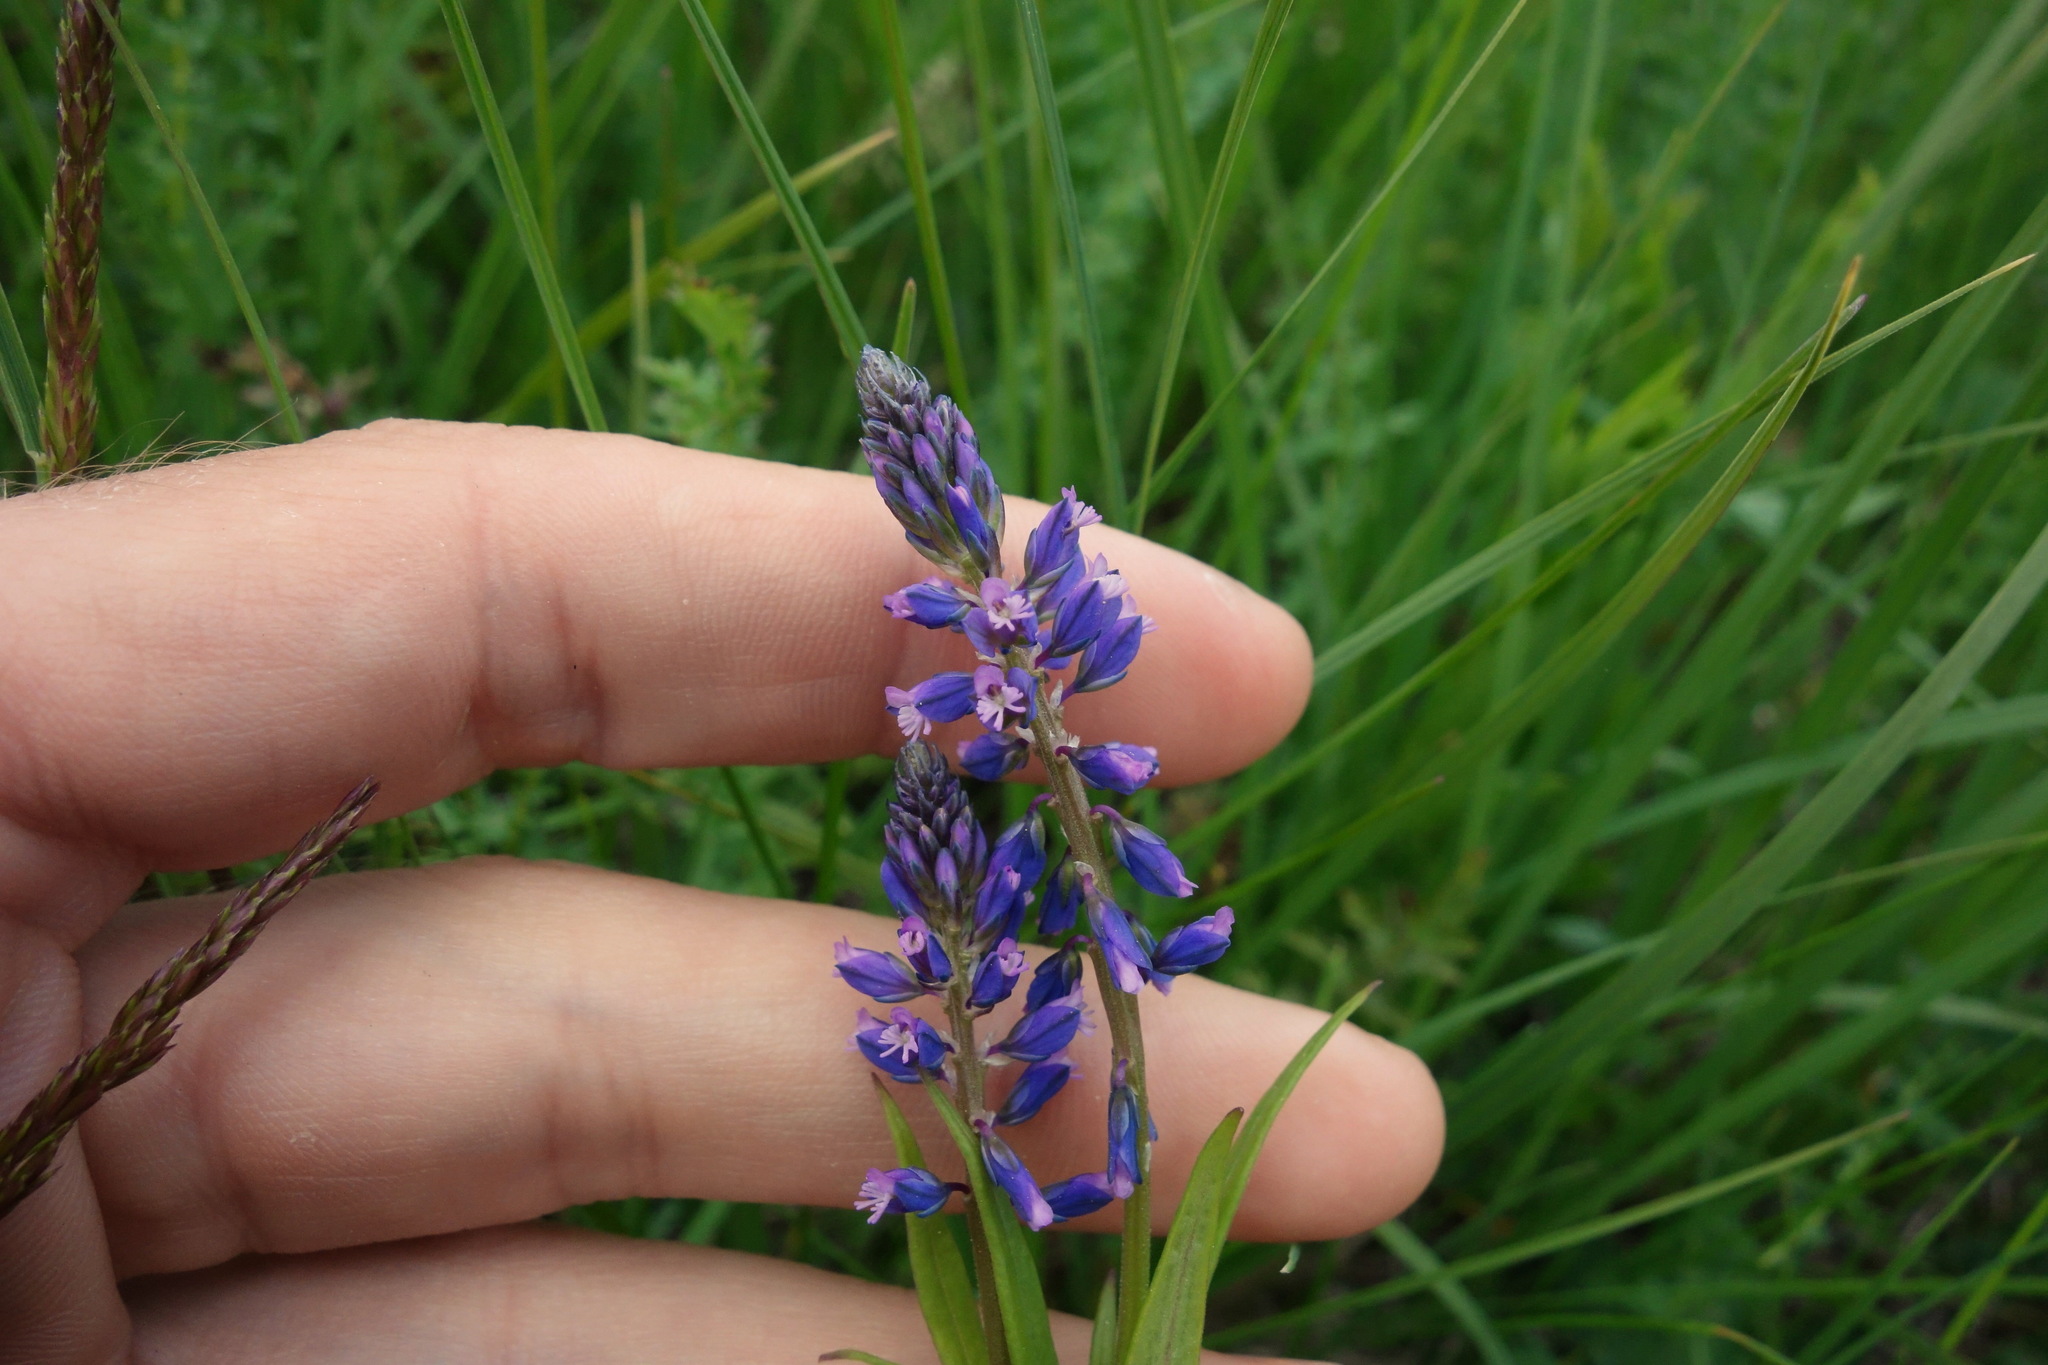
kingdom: Plantae
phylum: Tracheophyta
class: Magnoliopsida
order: Fabales
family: Polygalaceae
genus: Polygala
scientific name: Polygala comosa
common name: Tufted milkwort
